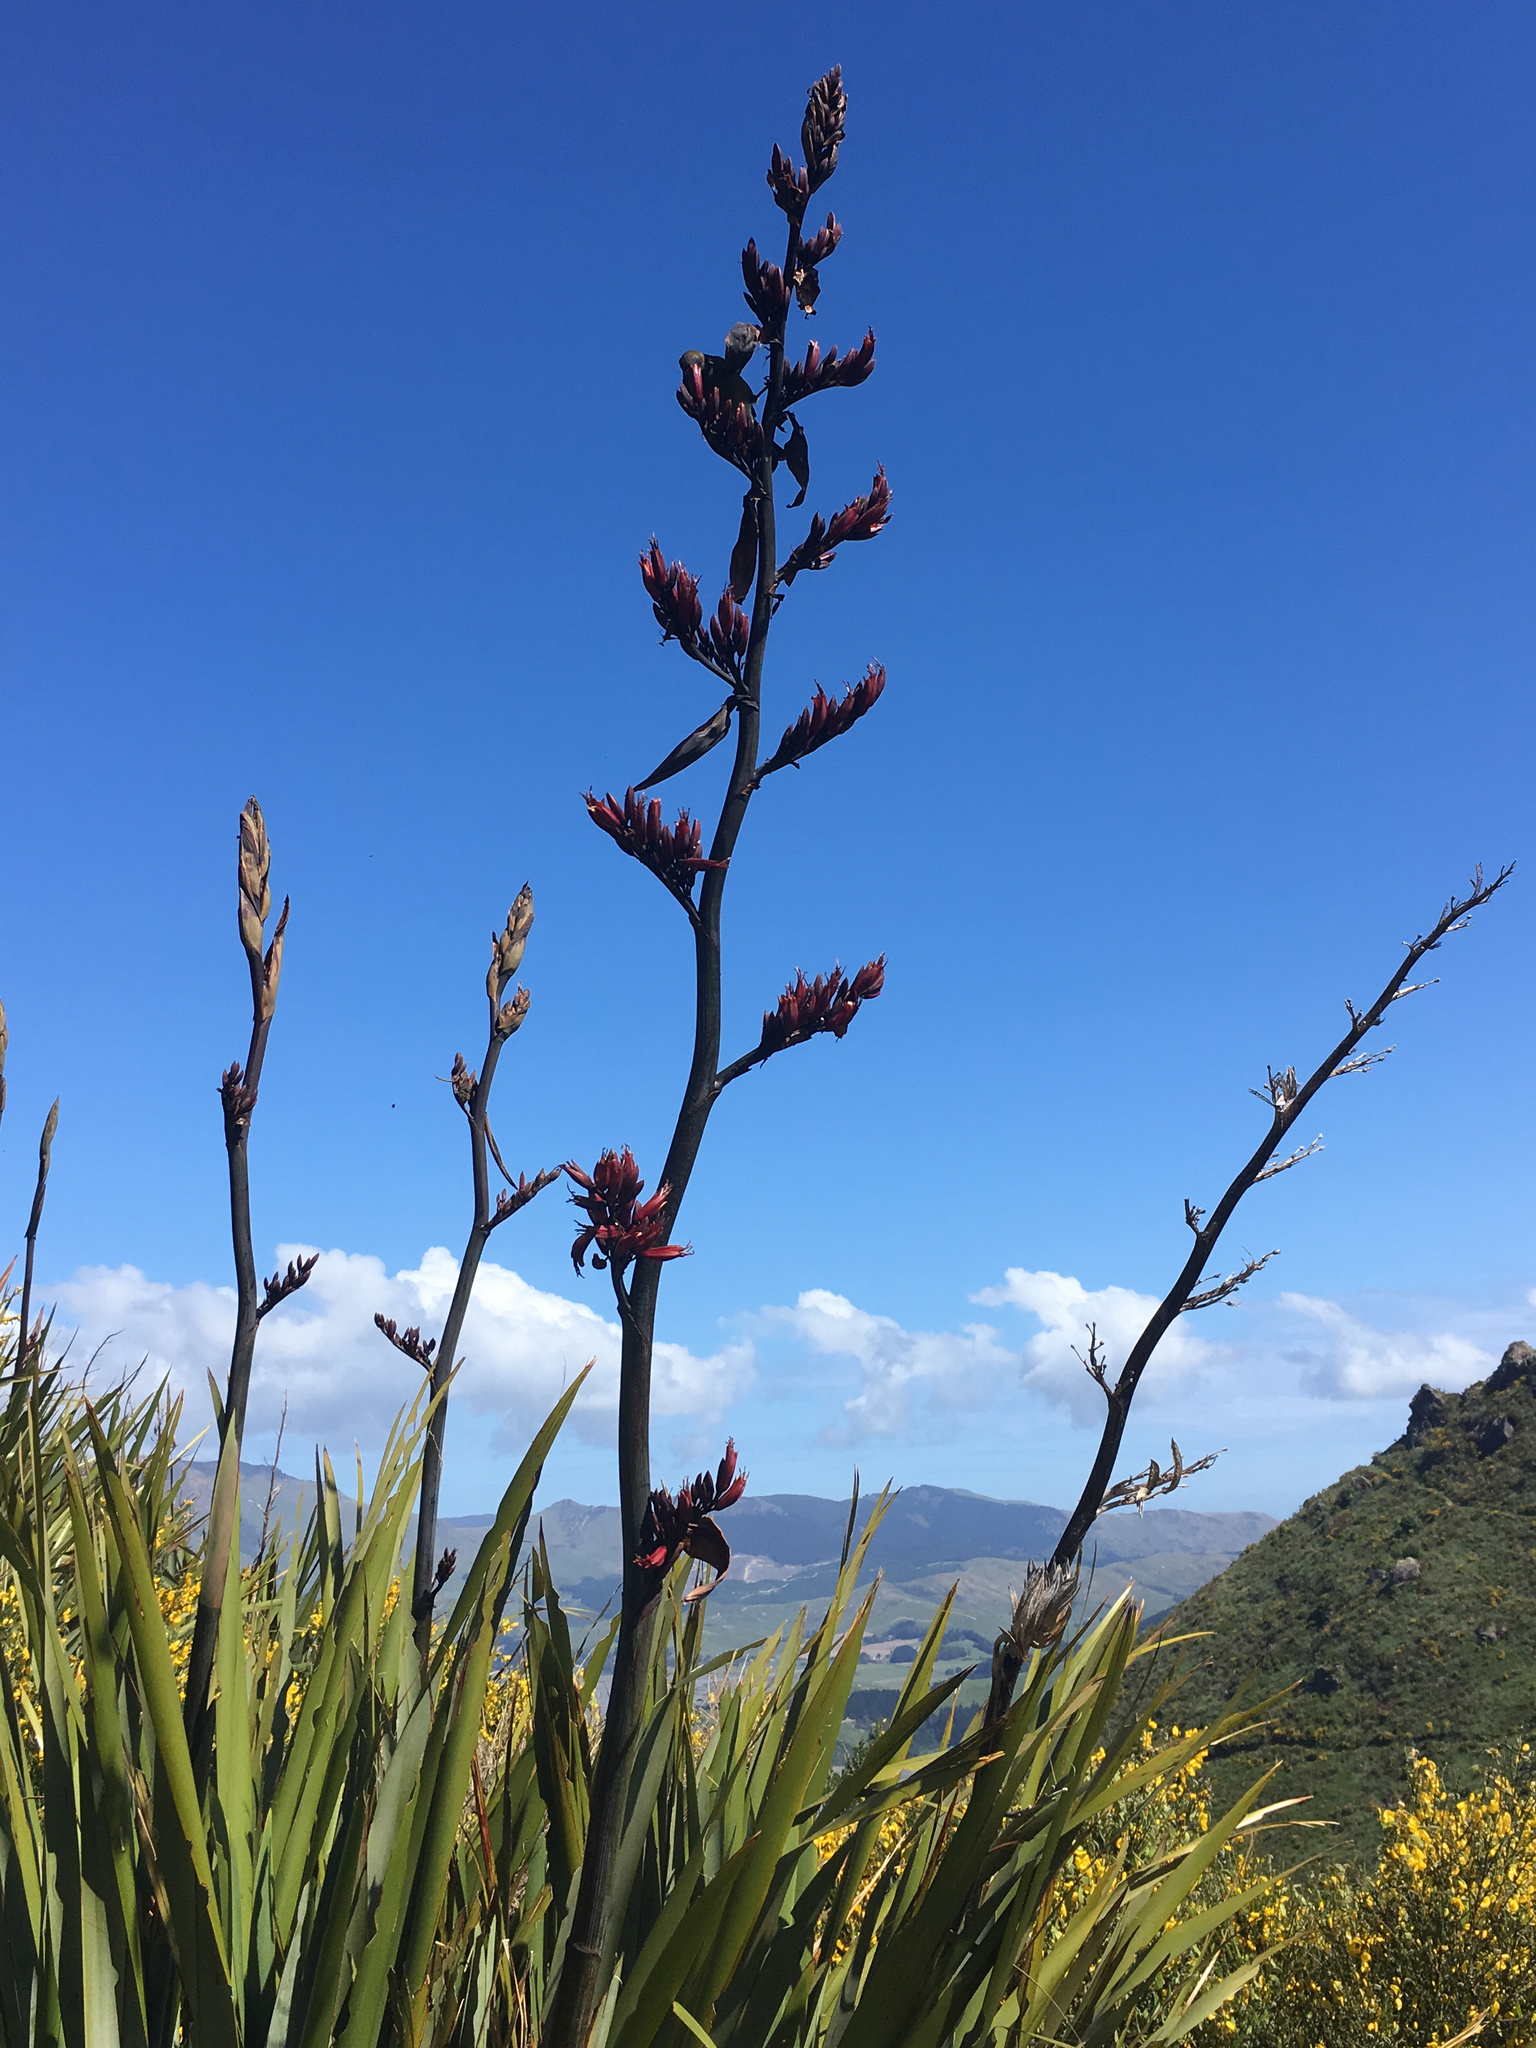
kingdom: Animalia
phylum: Chordata
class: Aves
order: Passeriformes
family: Meliphagidae
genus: Anthornis
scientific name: Anthornis melanura
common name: New zealand bellbird
